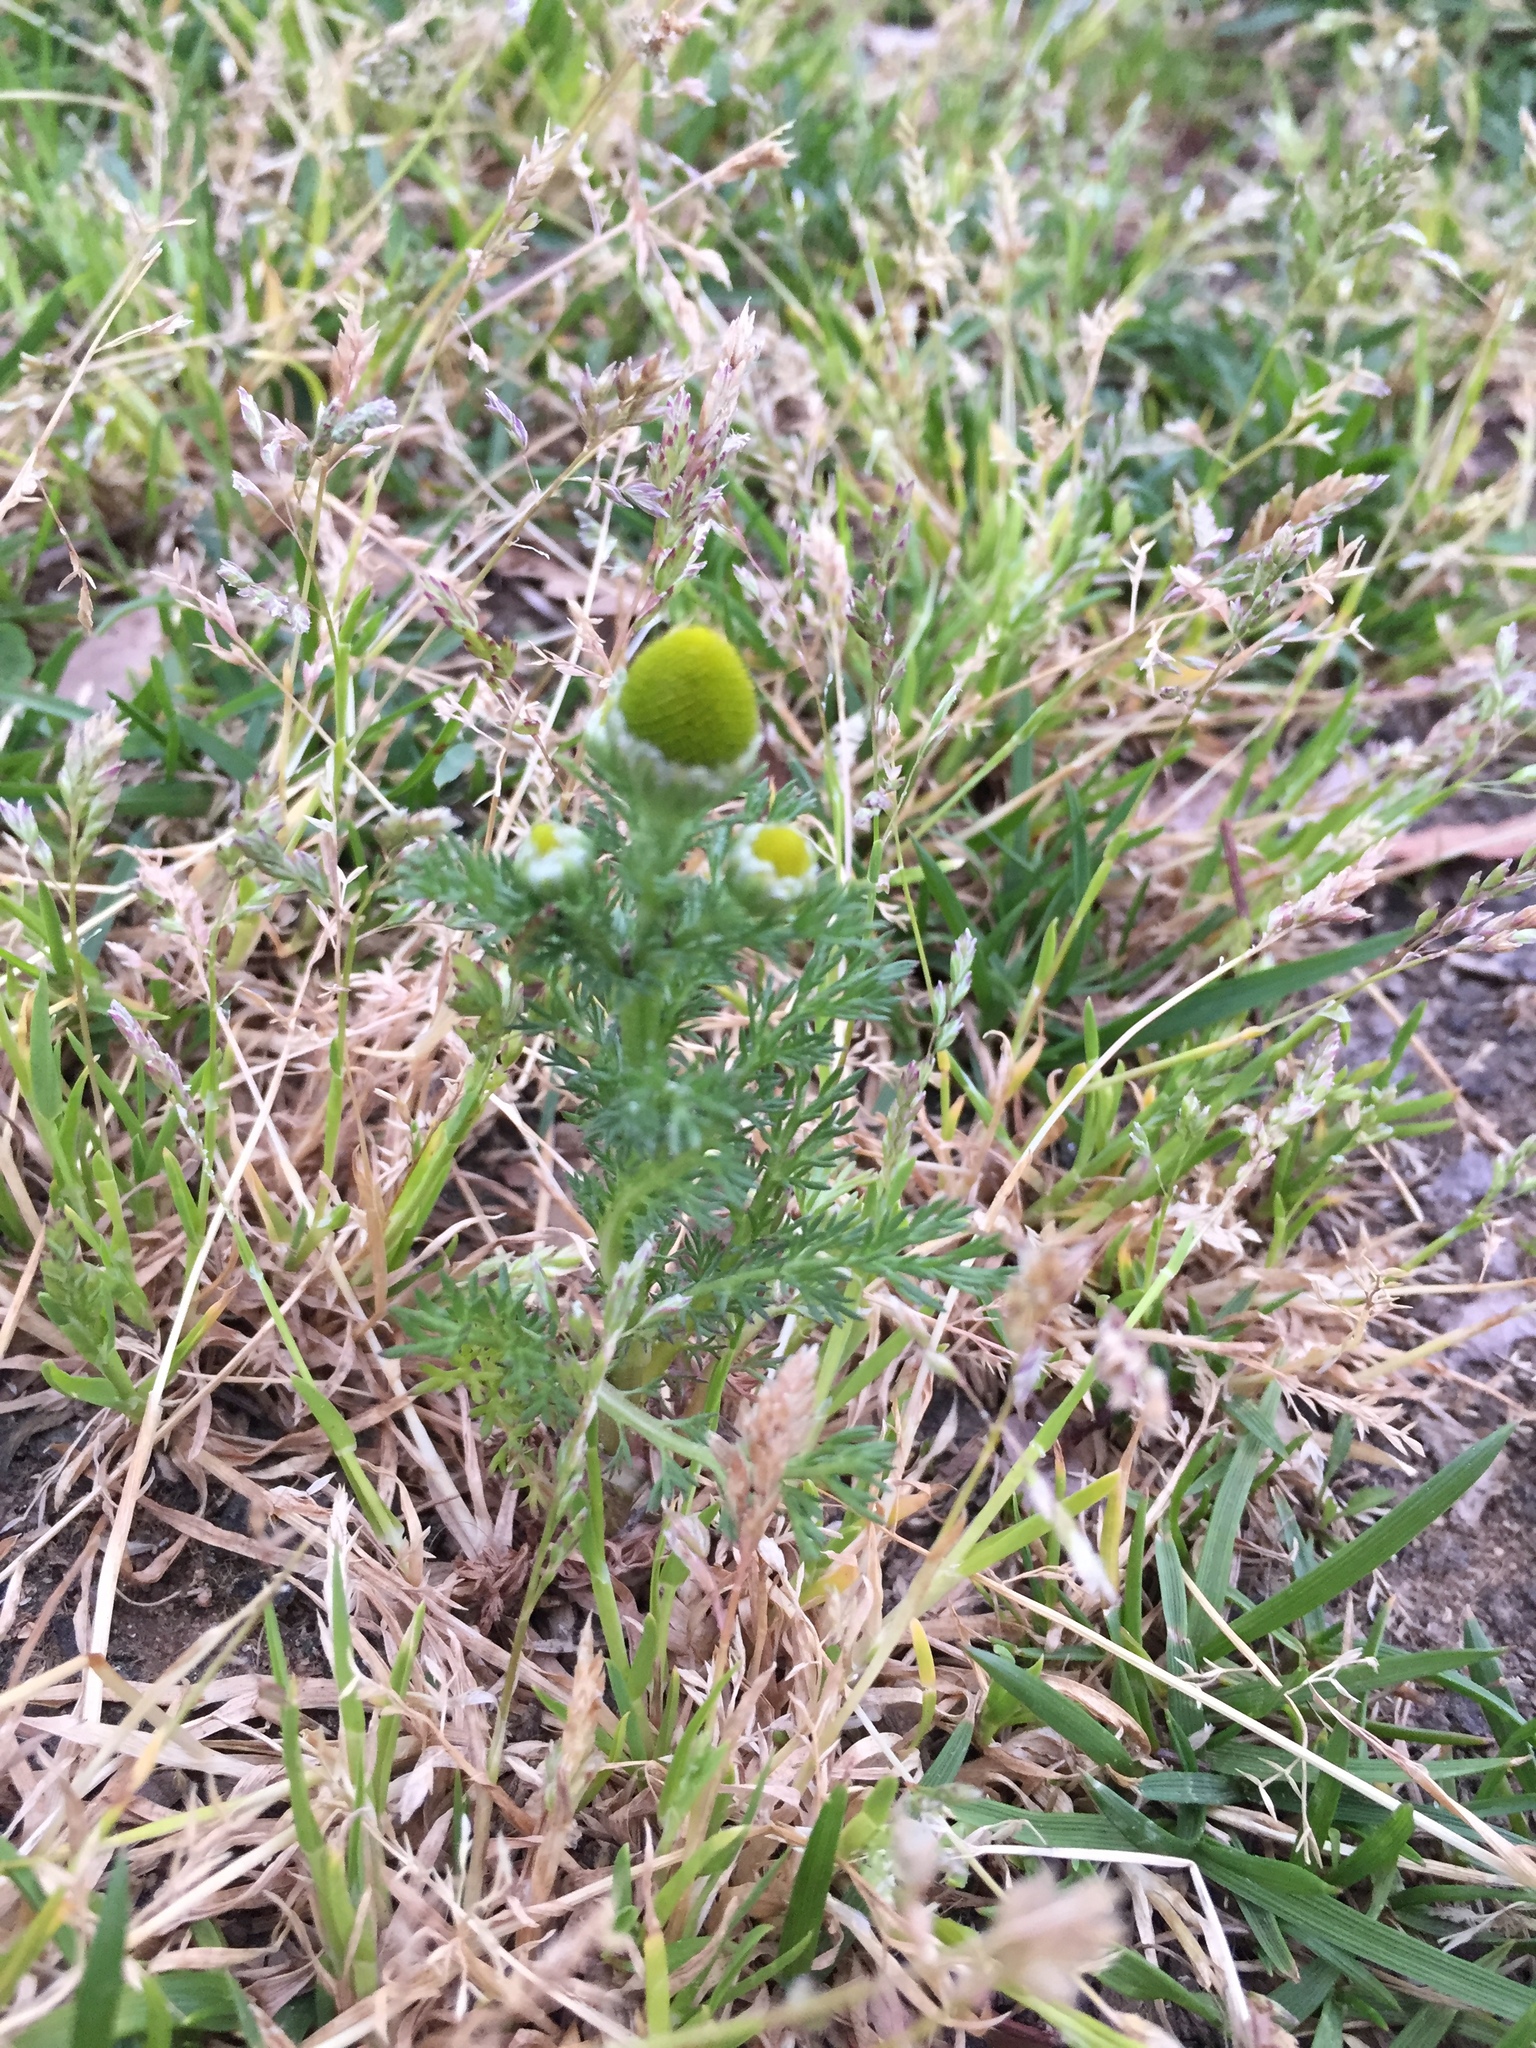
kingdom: Plantae
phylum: Tracheophyta
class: Magnoliopsida
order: Asterales
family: Asteraceae
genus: Matricaria
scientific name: Matricaria discoidea
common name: Disc mayweed
